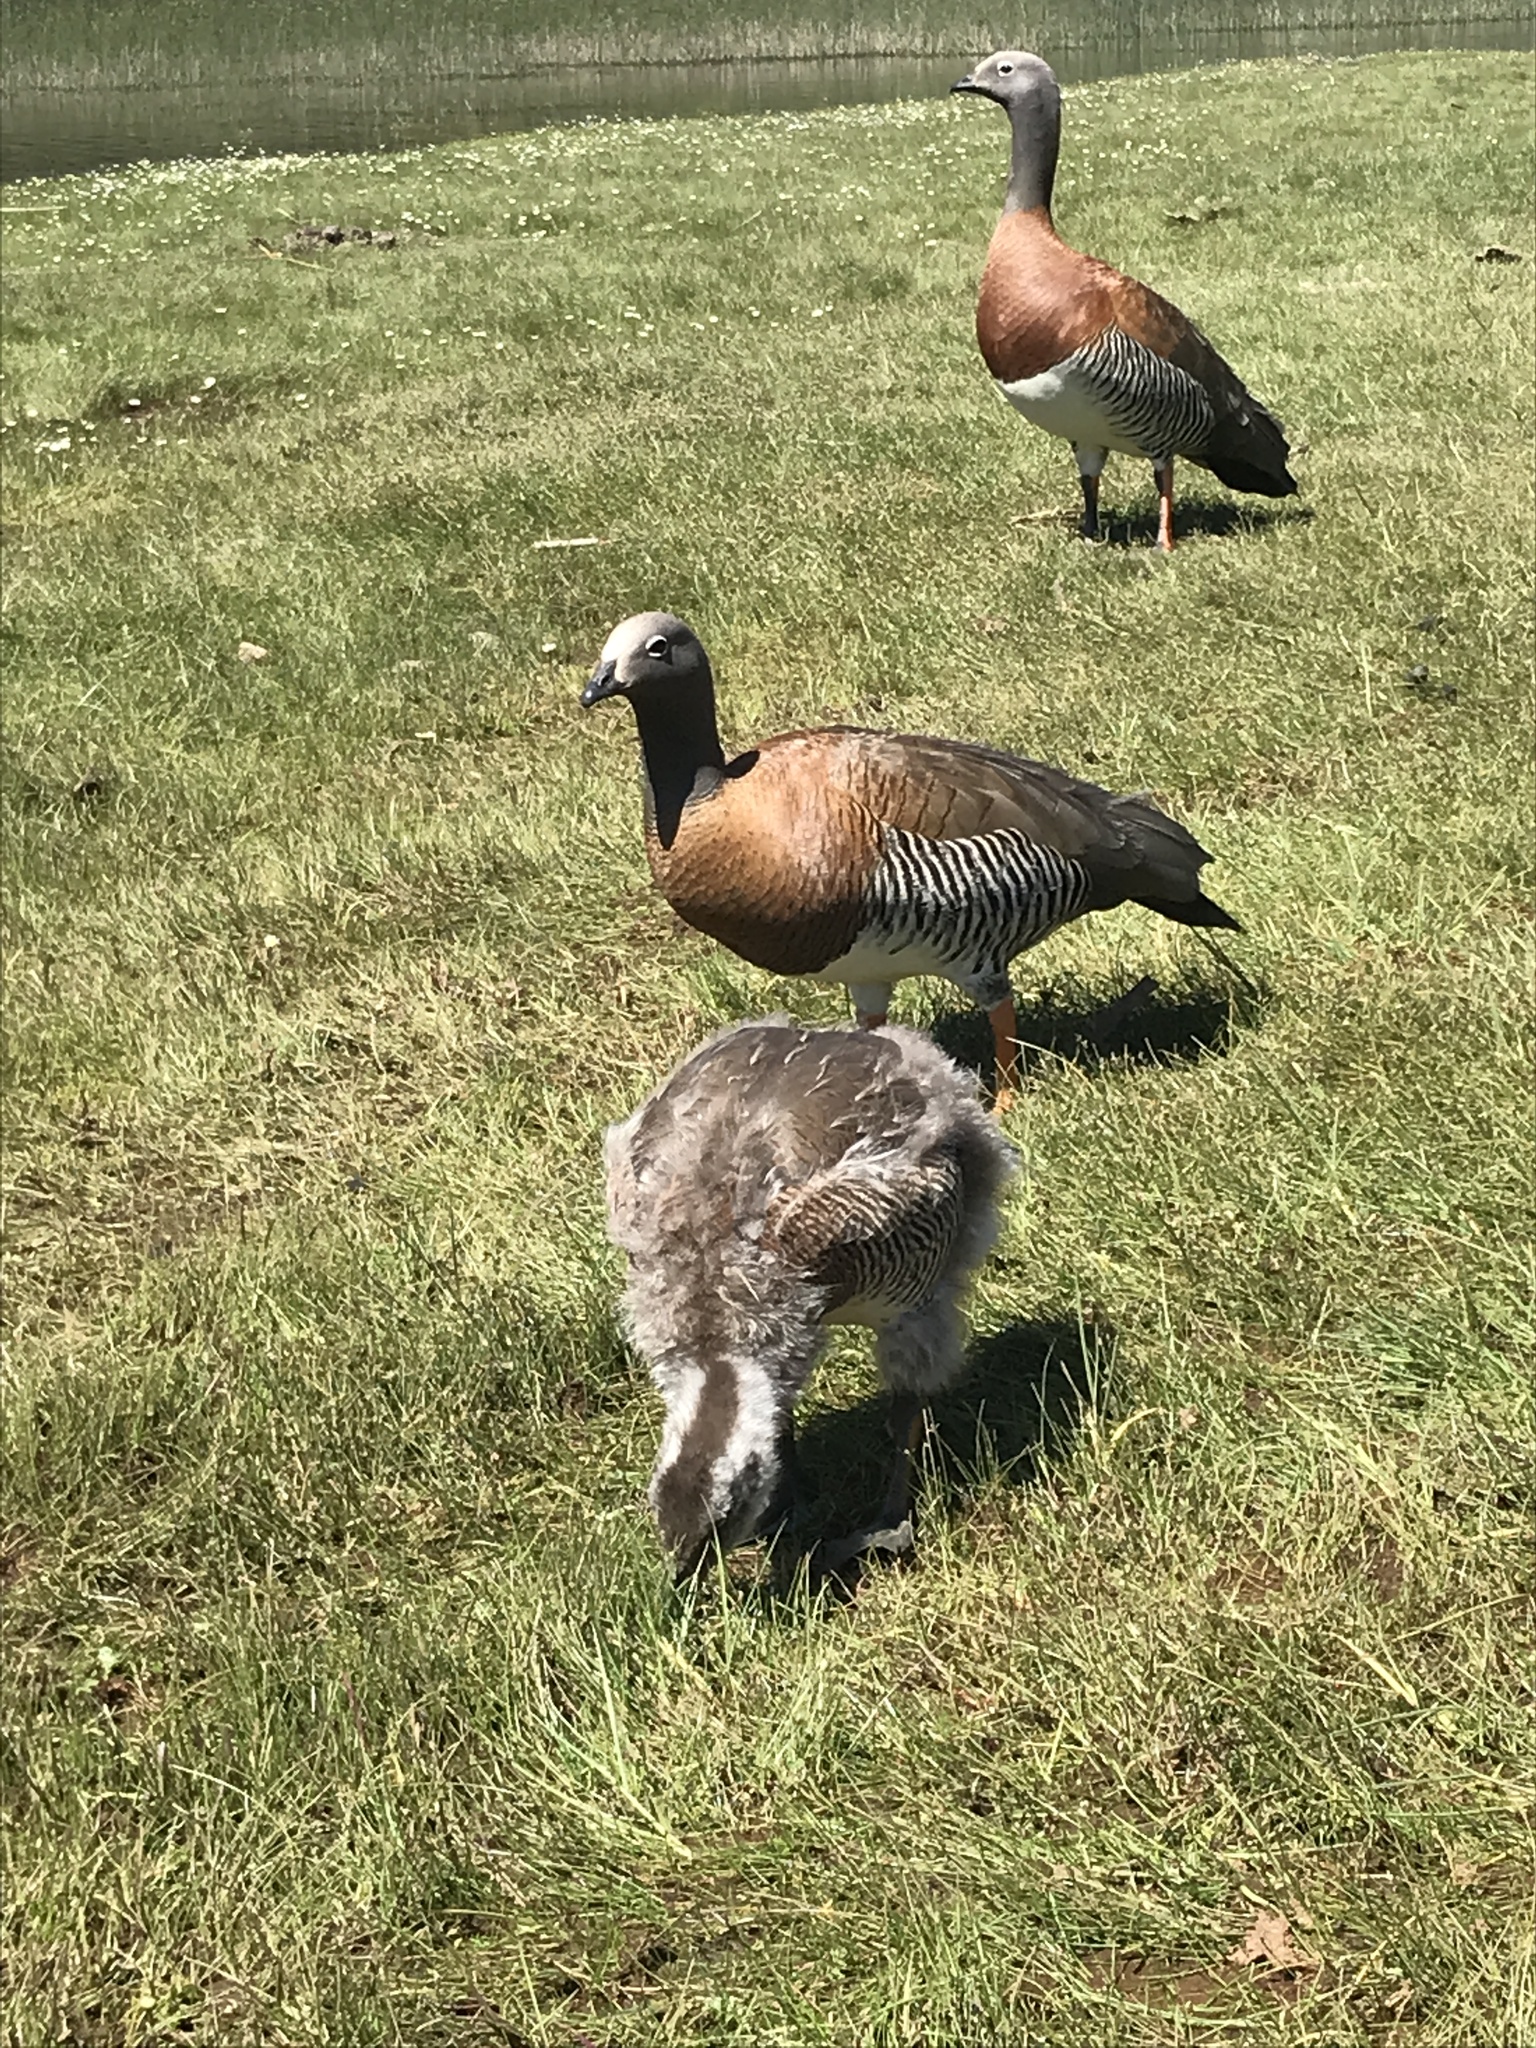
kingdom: Animalia
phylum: Chordata
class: Aves
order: Anseriformes
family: Anatidae
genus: Chloephaga
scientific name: Chloephaga poliocephala
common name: Ashy-headed goose
